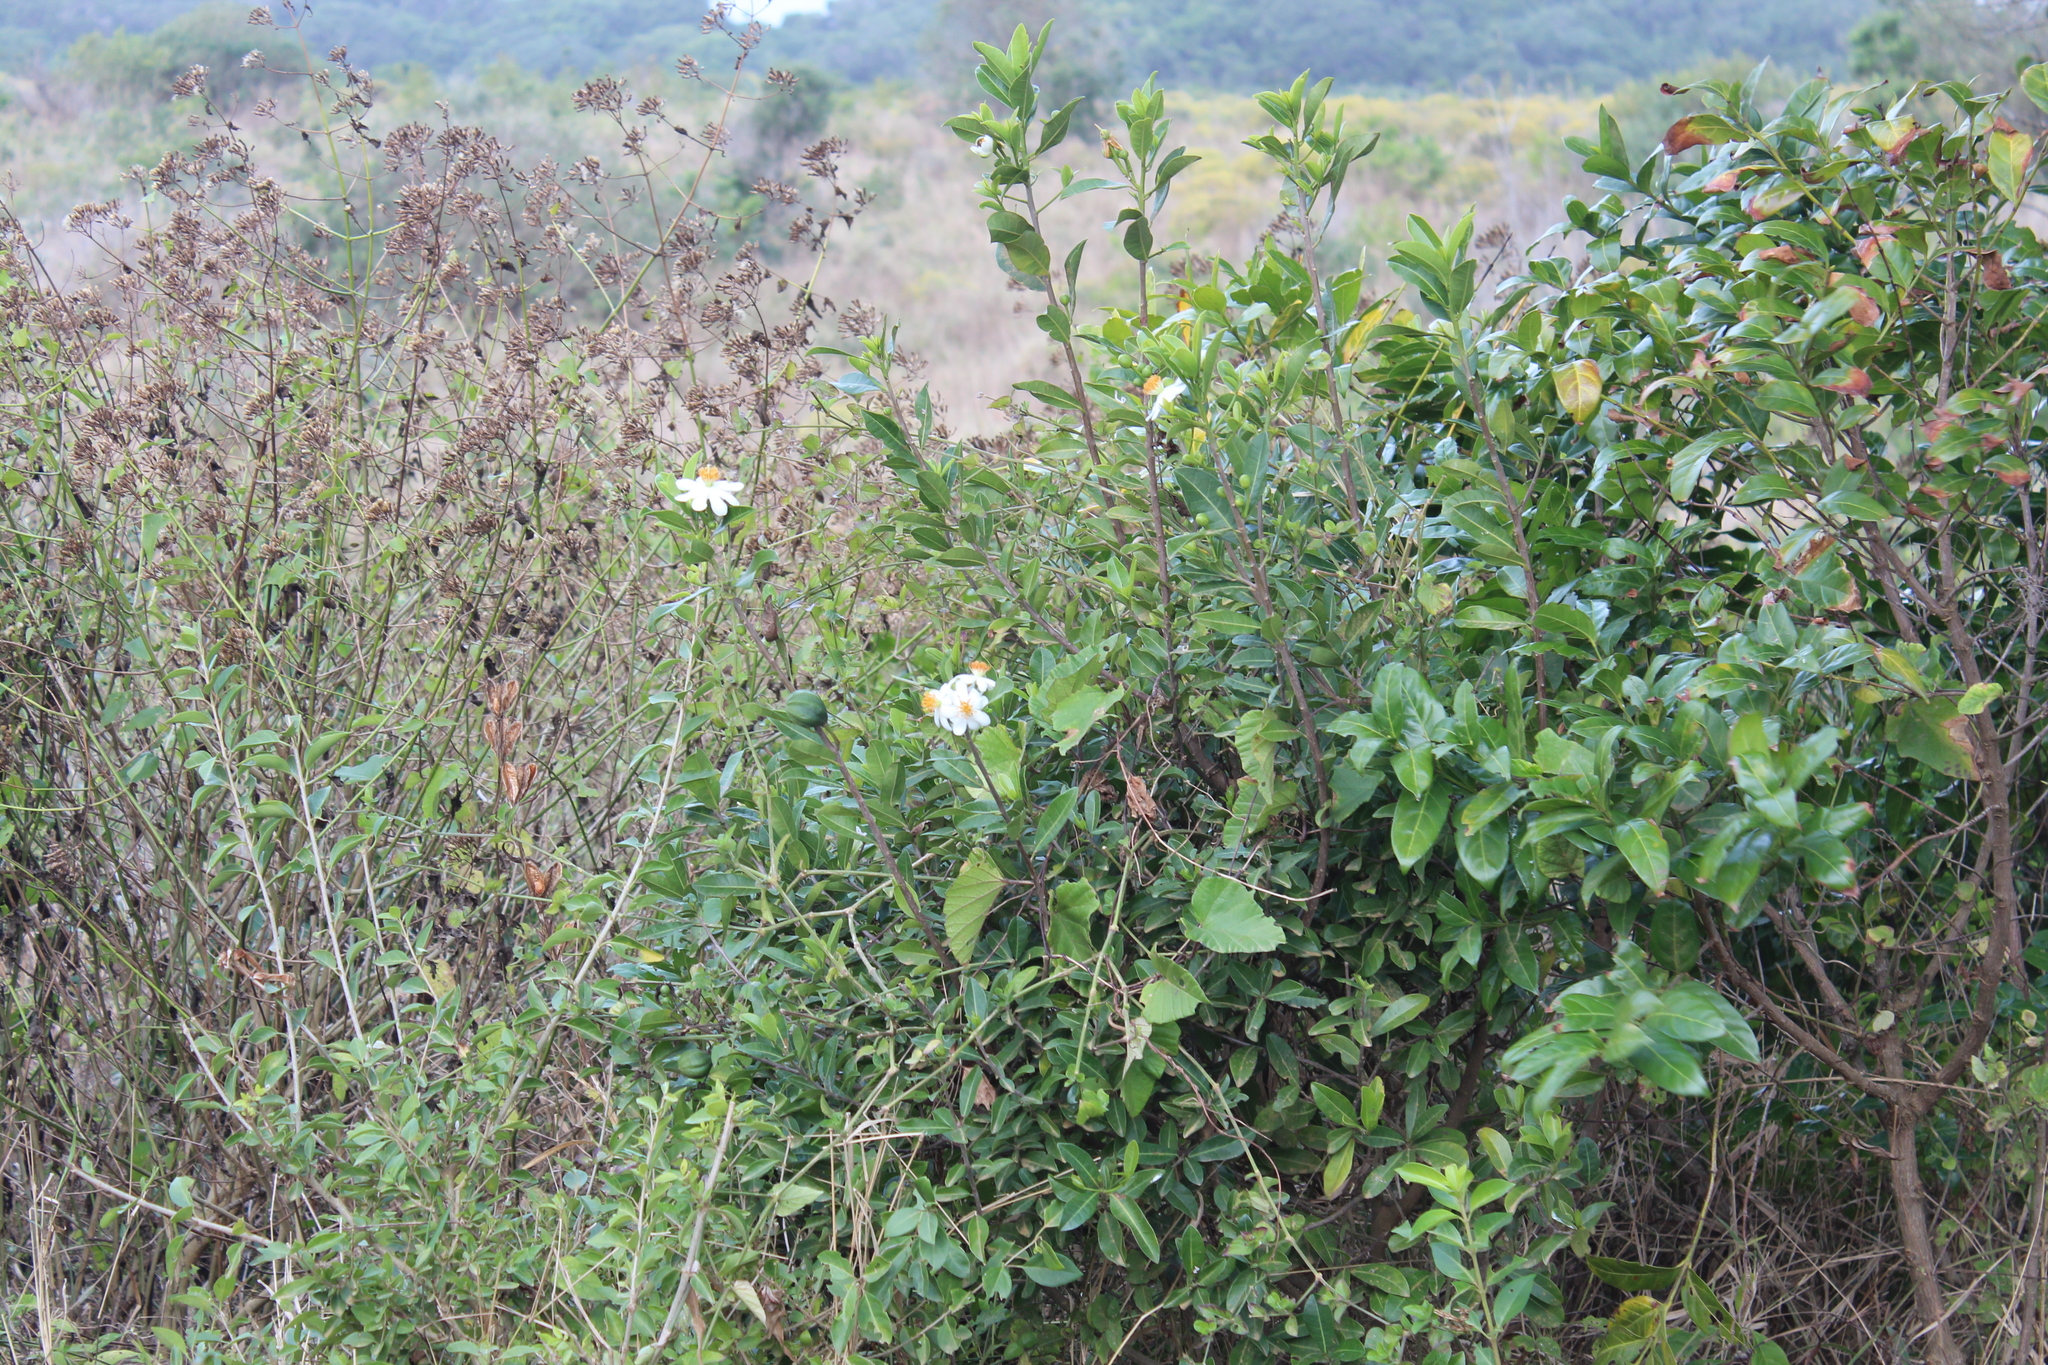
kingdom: Plantae
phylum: Tracheophyta
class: Magnoliopsida
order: Malpighiales
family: Achariaceae
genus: Xylotheca
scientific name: Xylotheca kraussiana
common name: African dog rose
